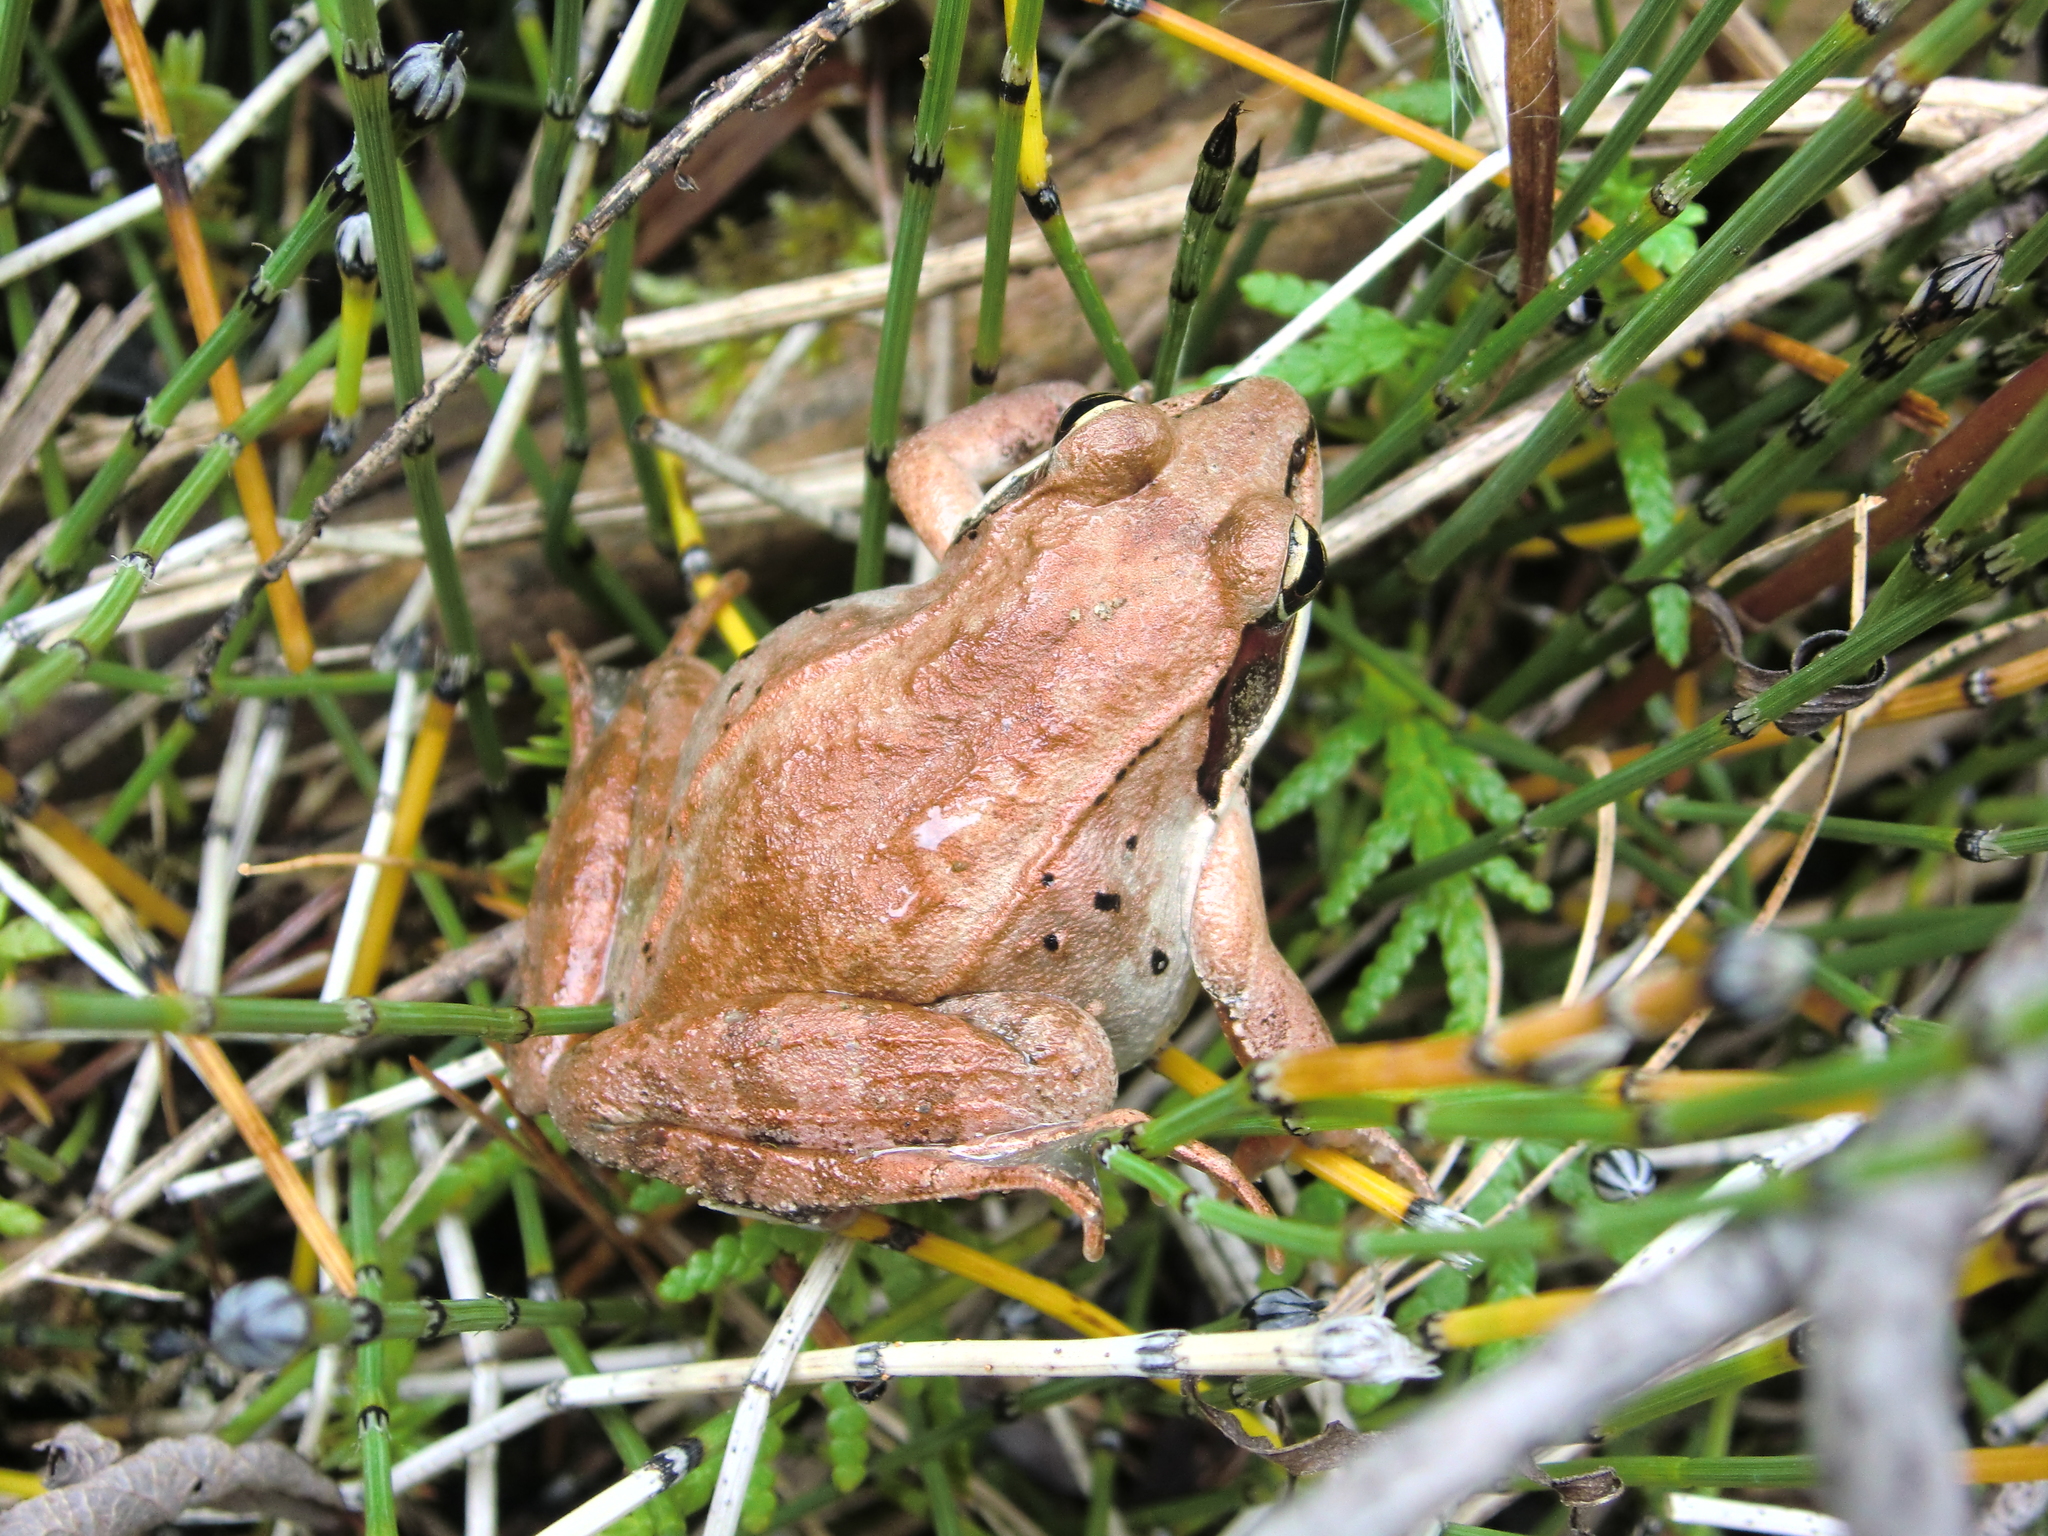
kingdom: Animalia
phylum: Chordata
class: Amphibia
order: Anura
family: Ranidae
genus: Lithobates
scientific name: Lithobates sylvaticus
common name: Wood frog
